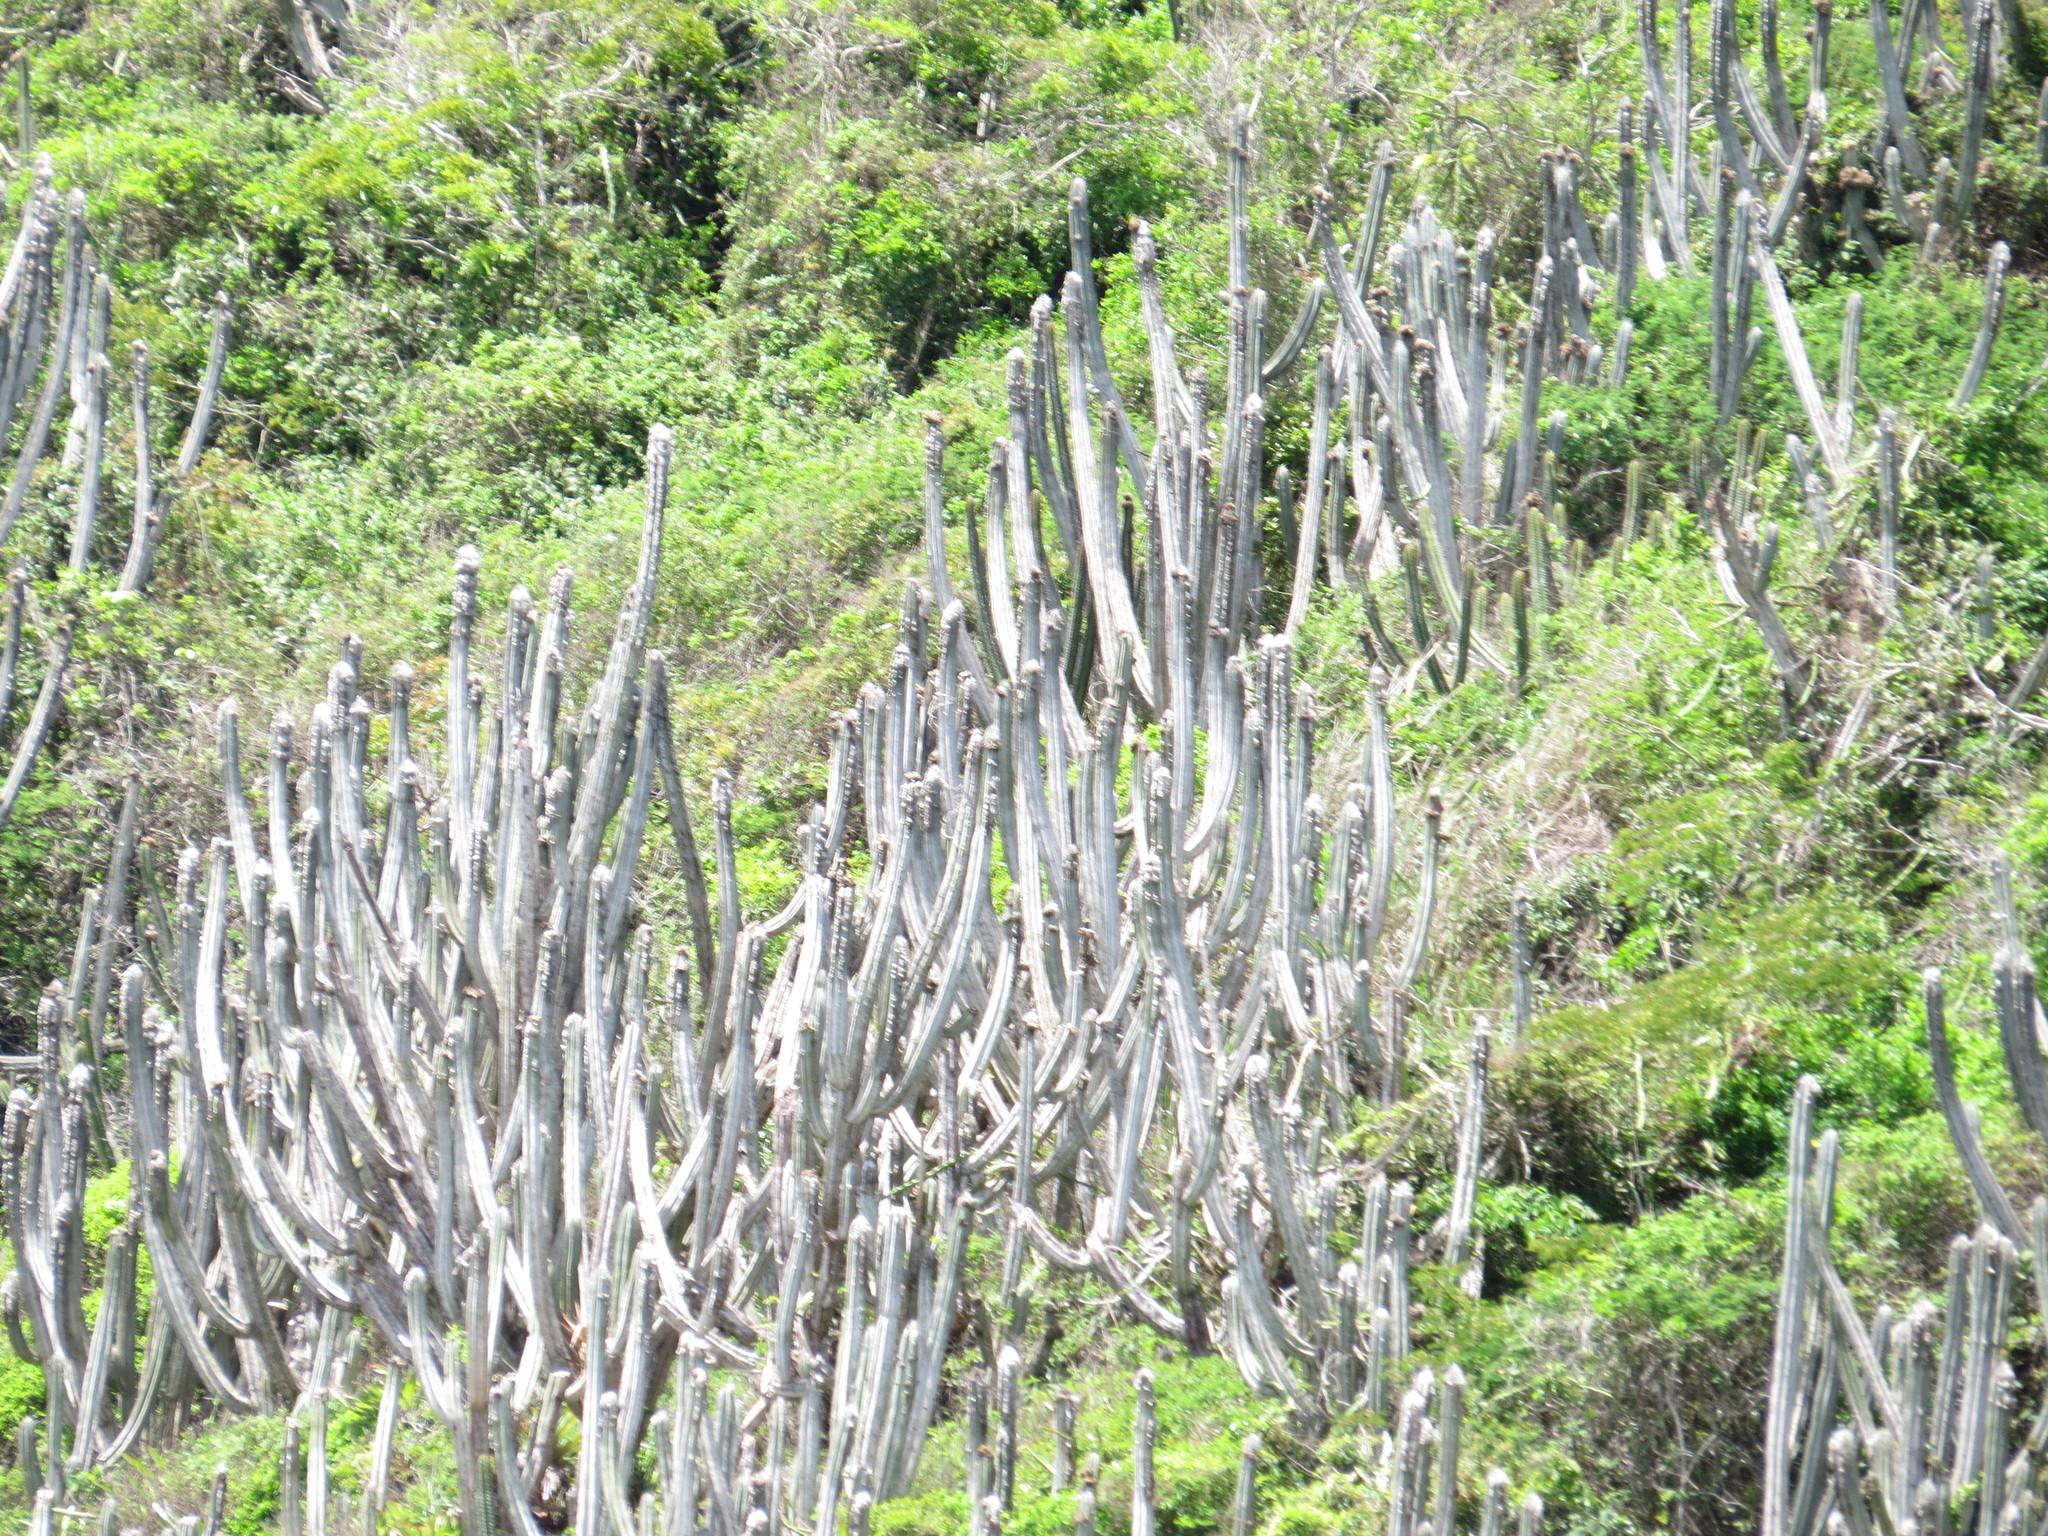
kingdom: Plantae
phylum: Tracheophyta
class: Magnoliopsida
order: Caryophyllales
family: Cactaceae
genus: Pilosocereus
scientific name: Pilosocereus ulei
